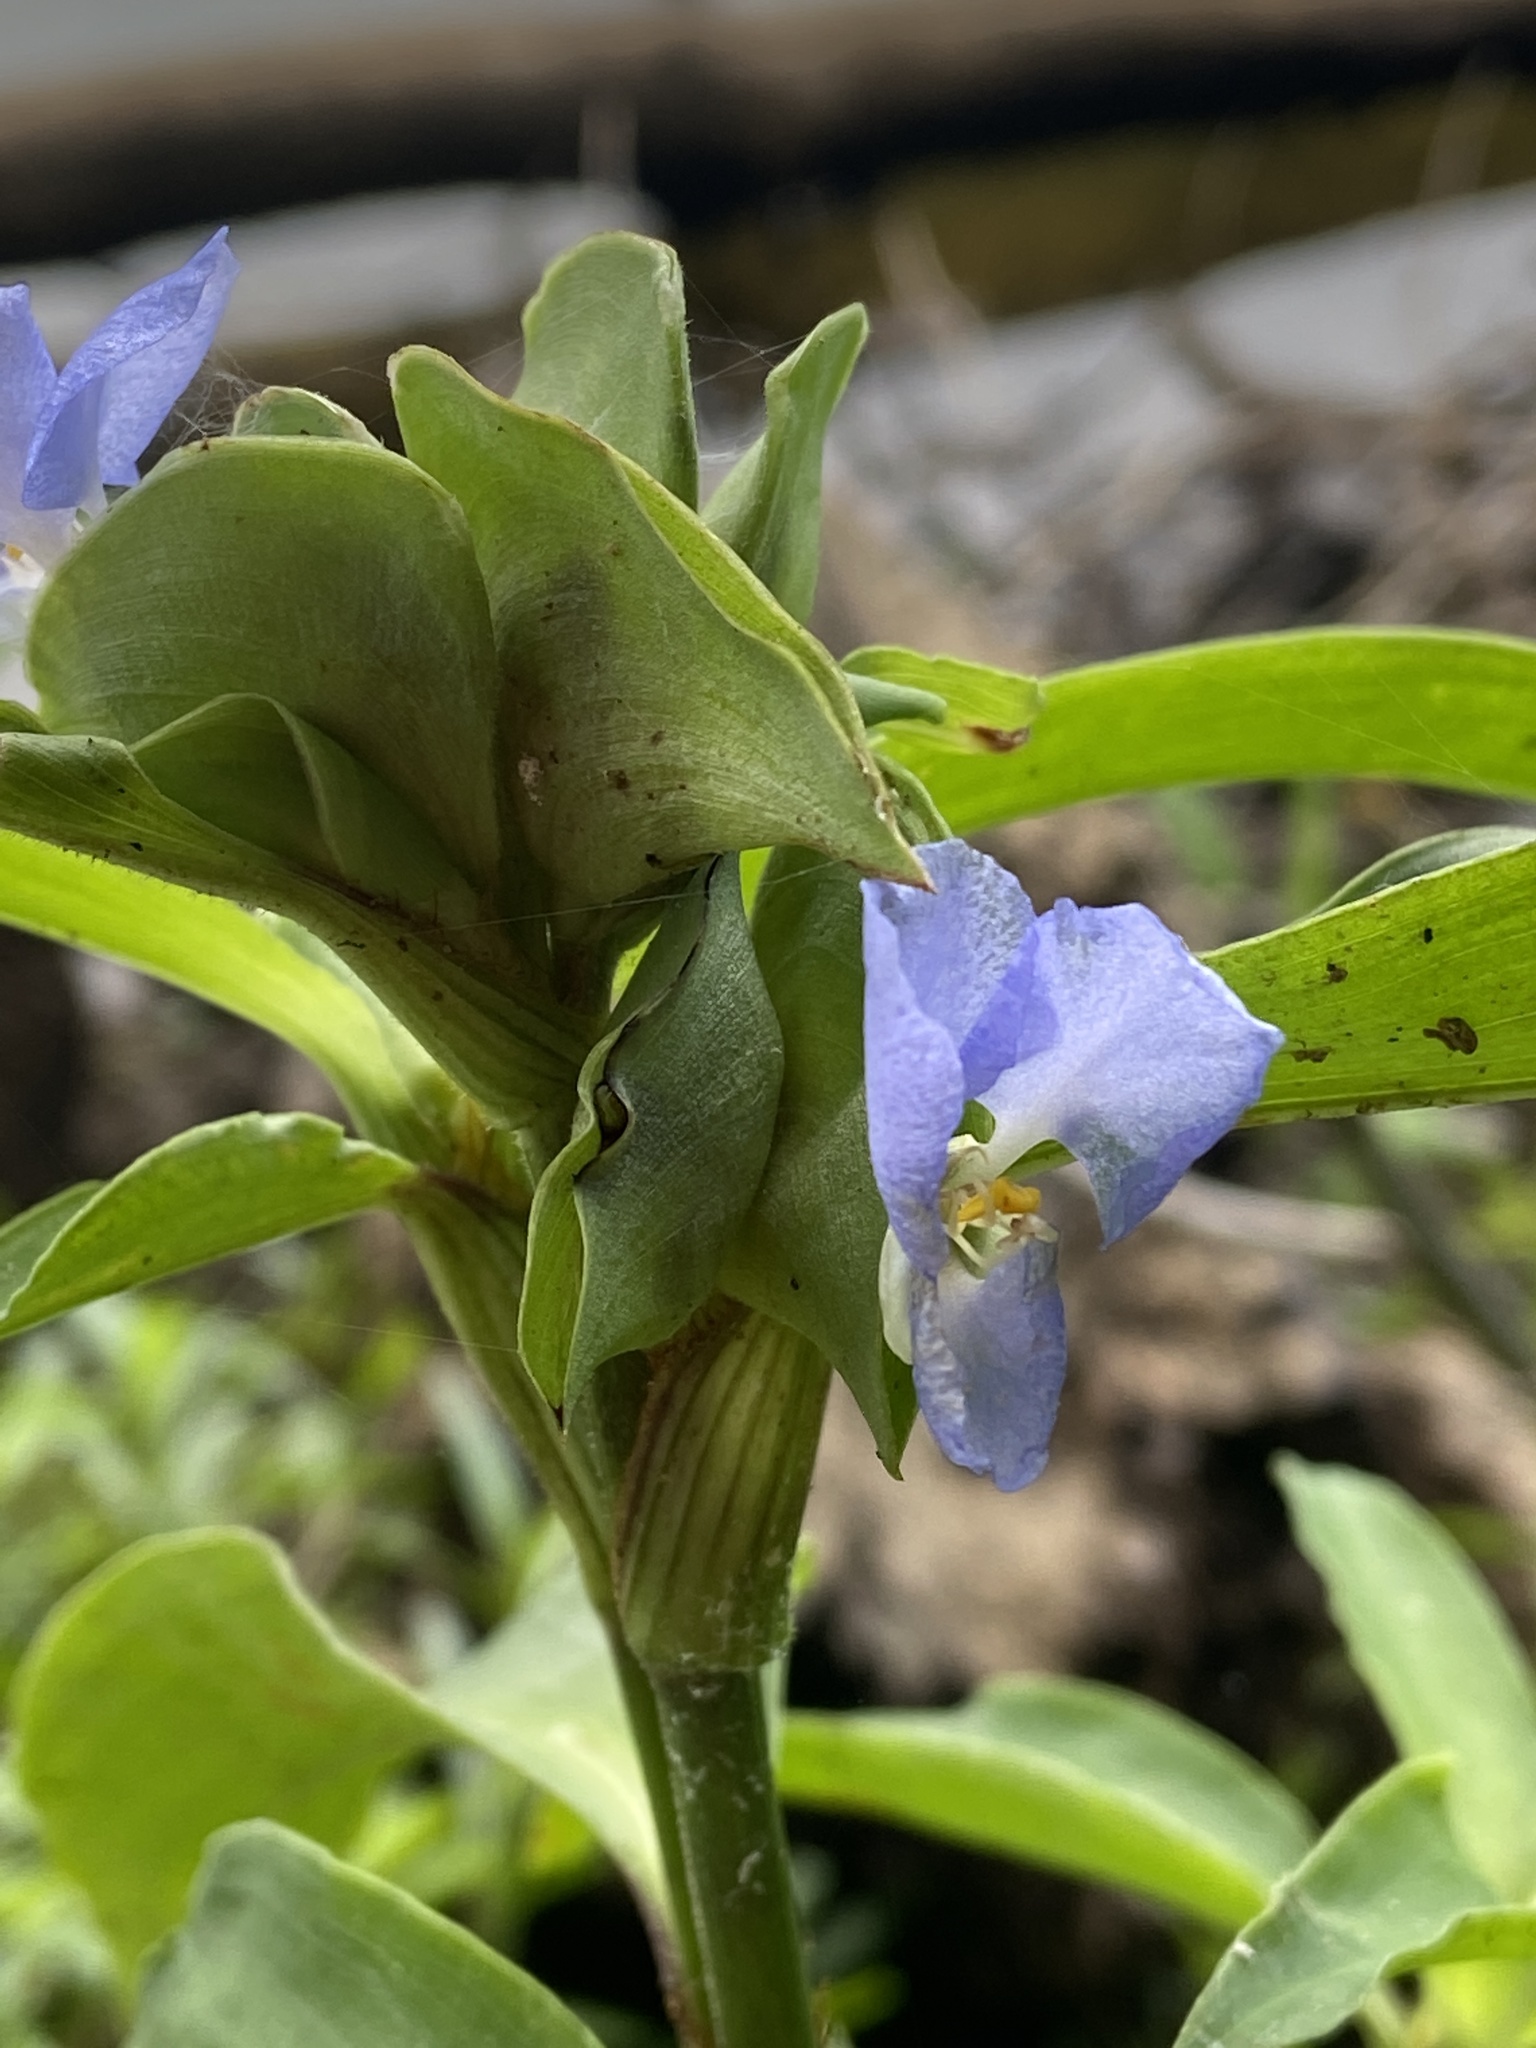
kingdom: Plantae
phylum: Tracheophyta
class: Liliopsida
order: Commelinales
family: Commelinaceae
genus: Commelina
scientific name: Commelina virginica
